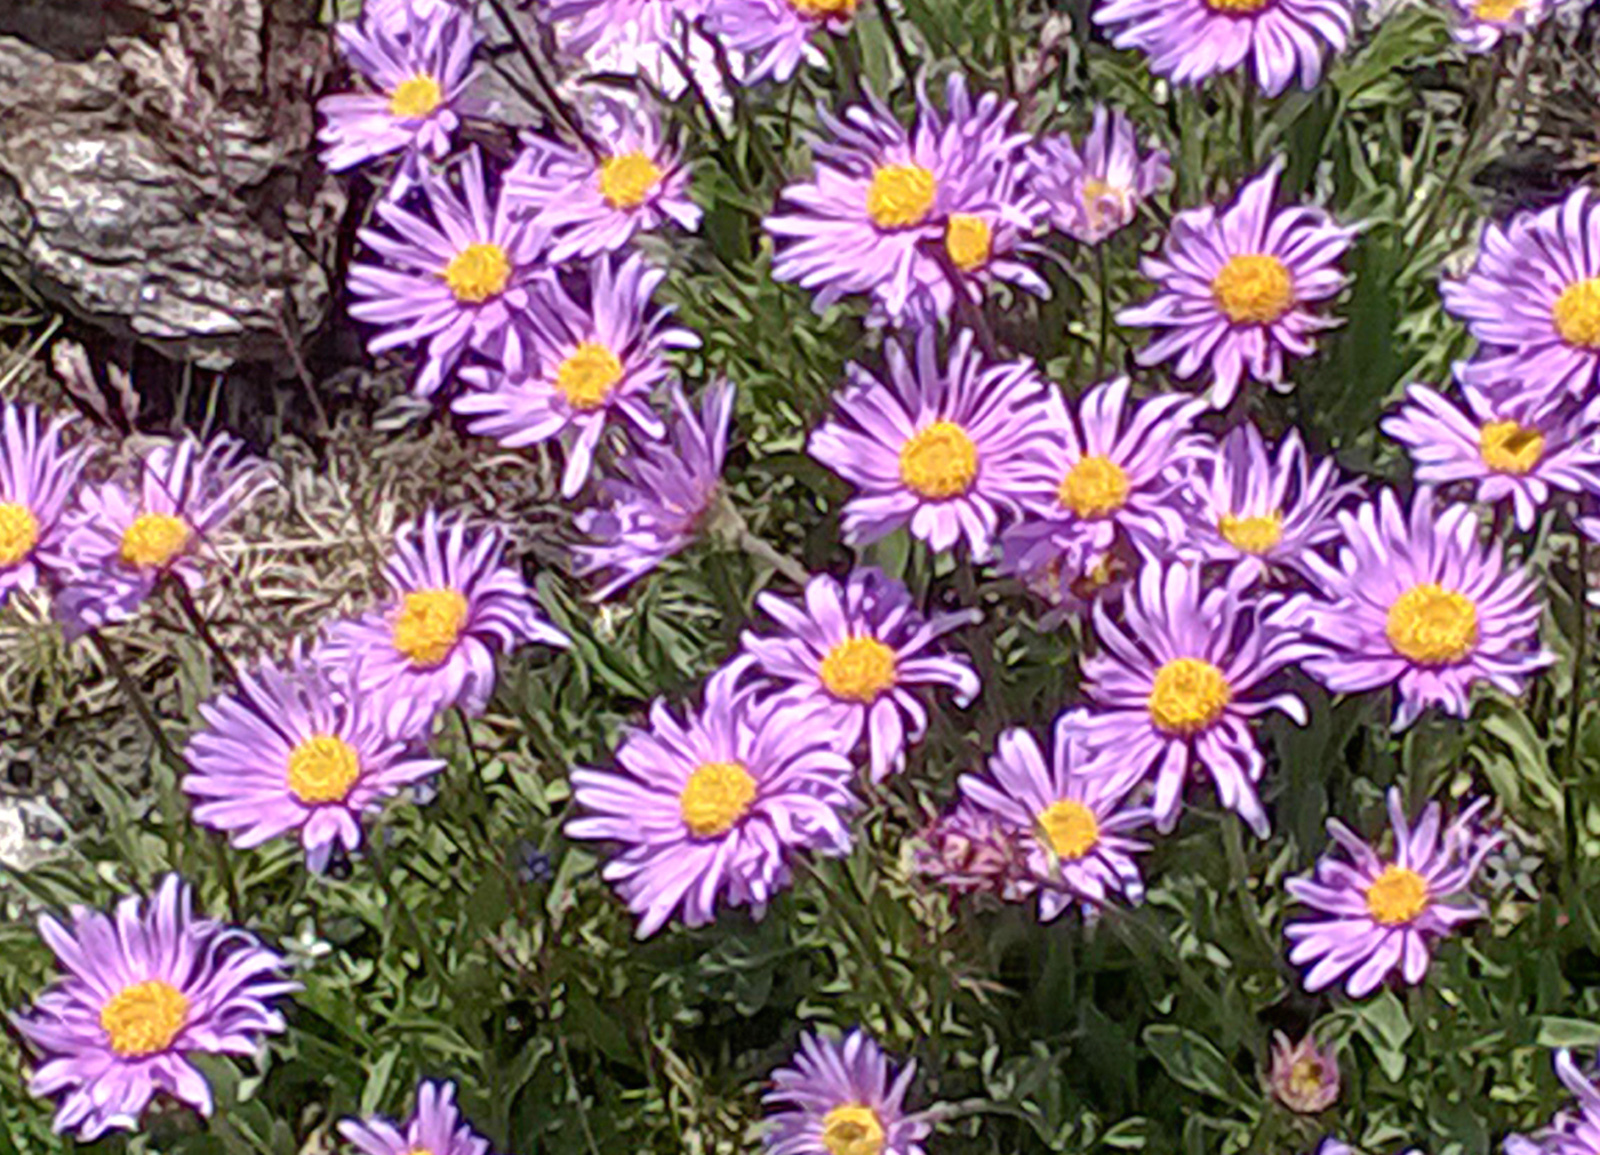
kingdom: Plantae
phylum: Tracheophyta
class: Magnoliopsida
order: Asterales
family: Asteraceae
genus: Aster
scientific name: Aster alpinus
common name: Alpine aster
